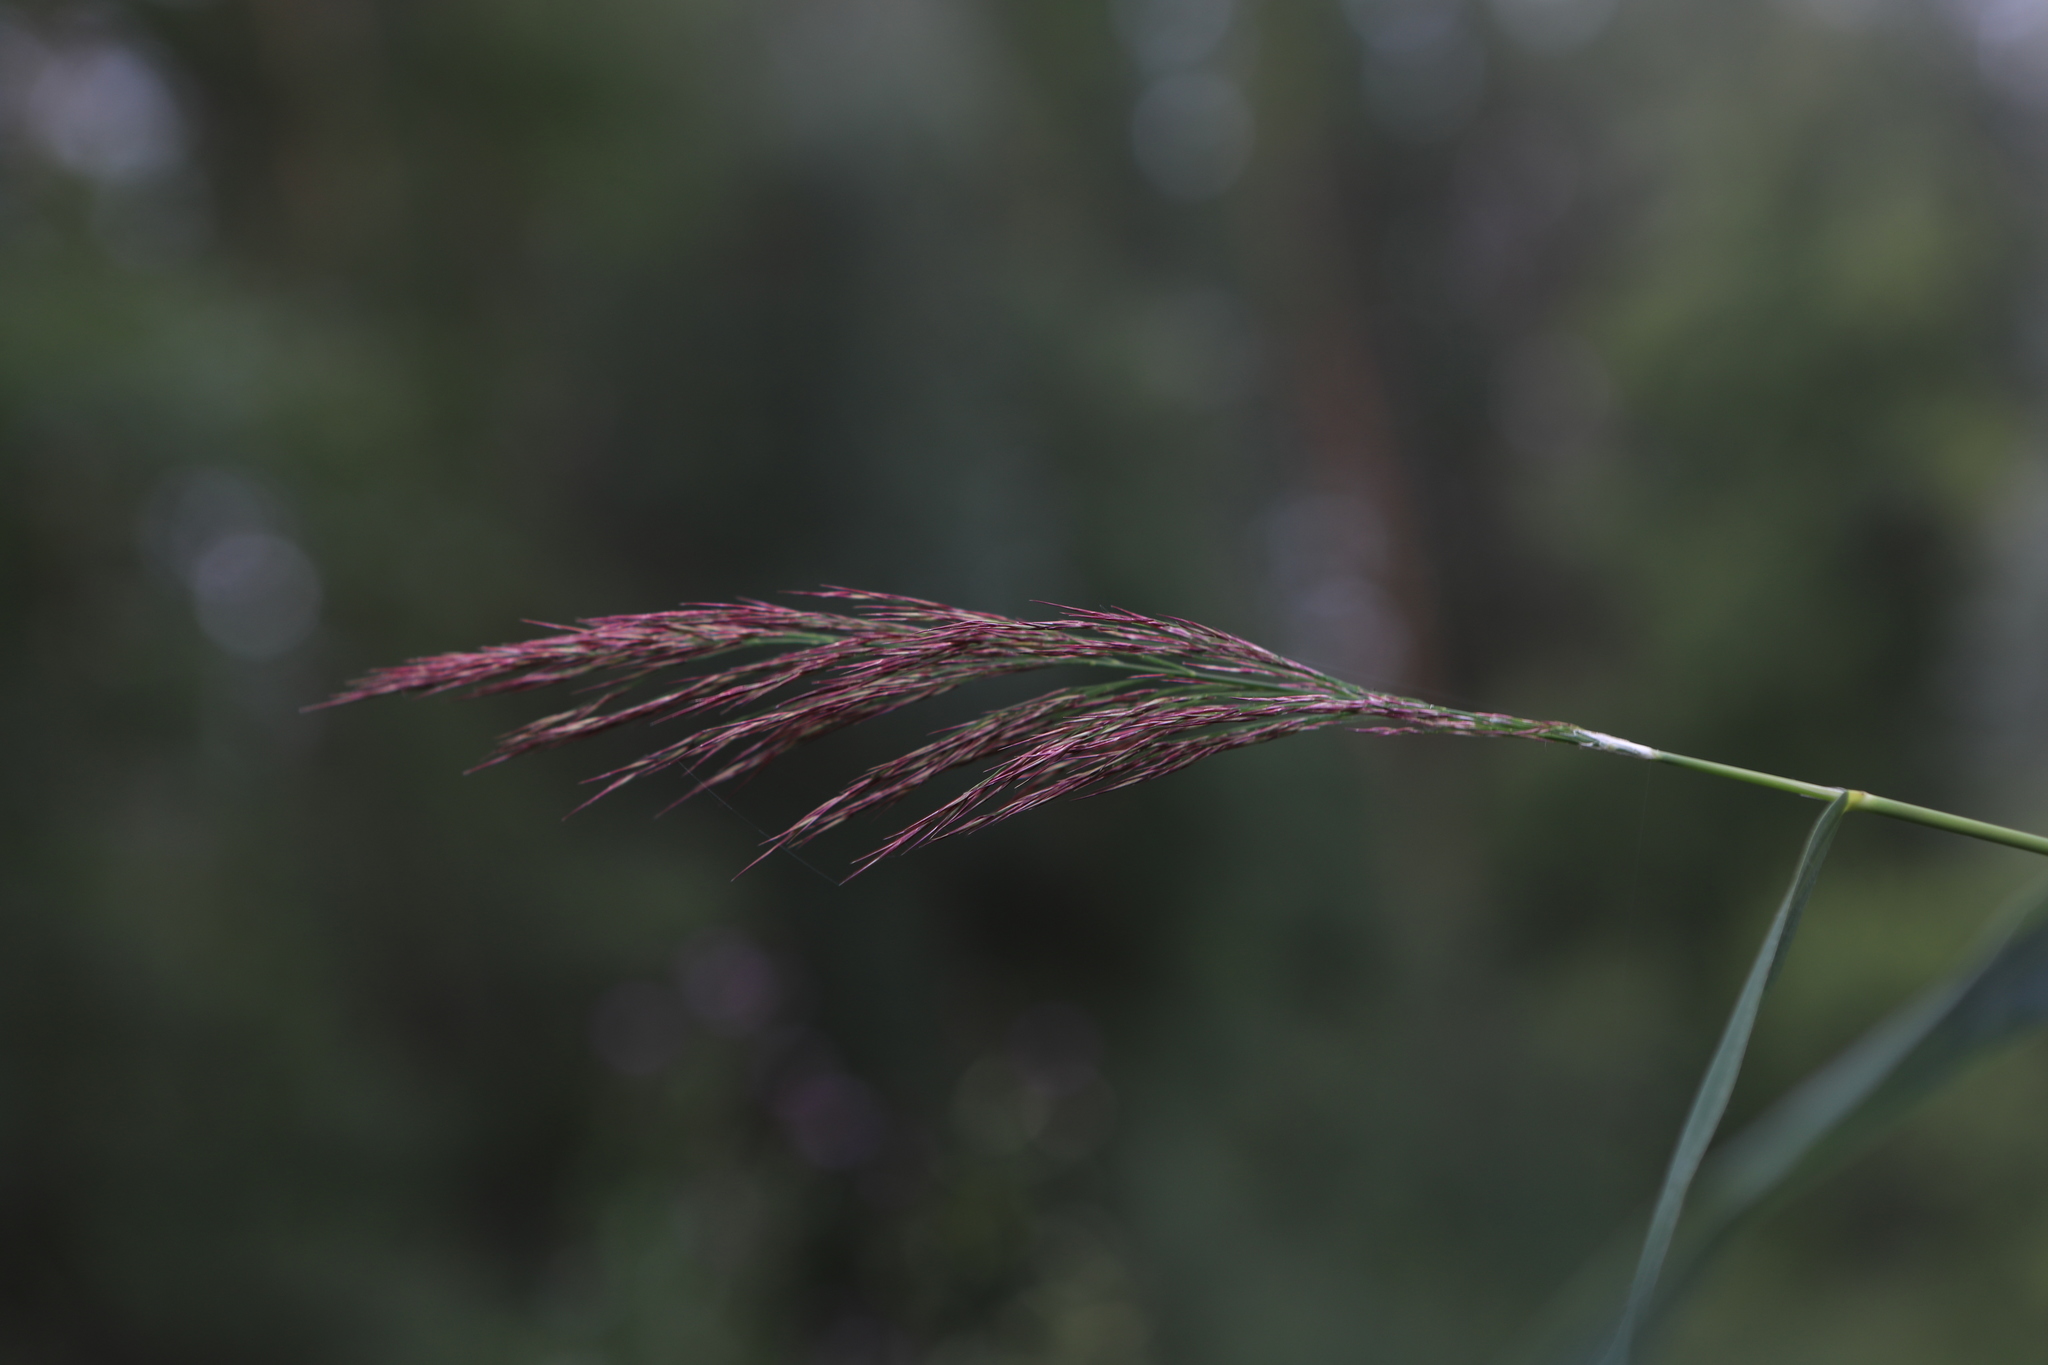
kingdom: Plantae
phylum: Tracheophyta
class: Liliopsida
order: Poales
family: Poaceae
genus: Phragmites
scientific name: Phragmites australis
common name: Common reed
